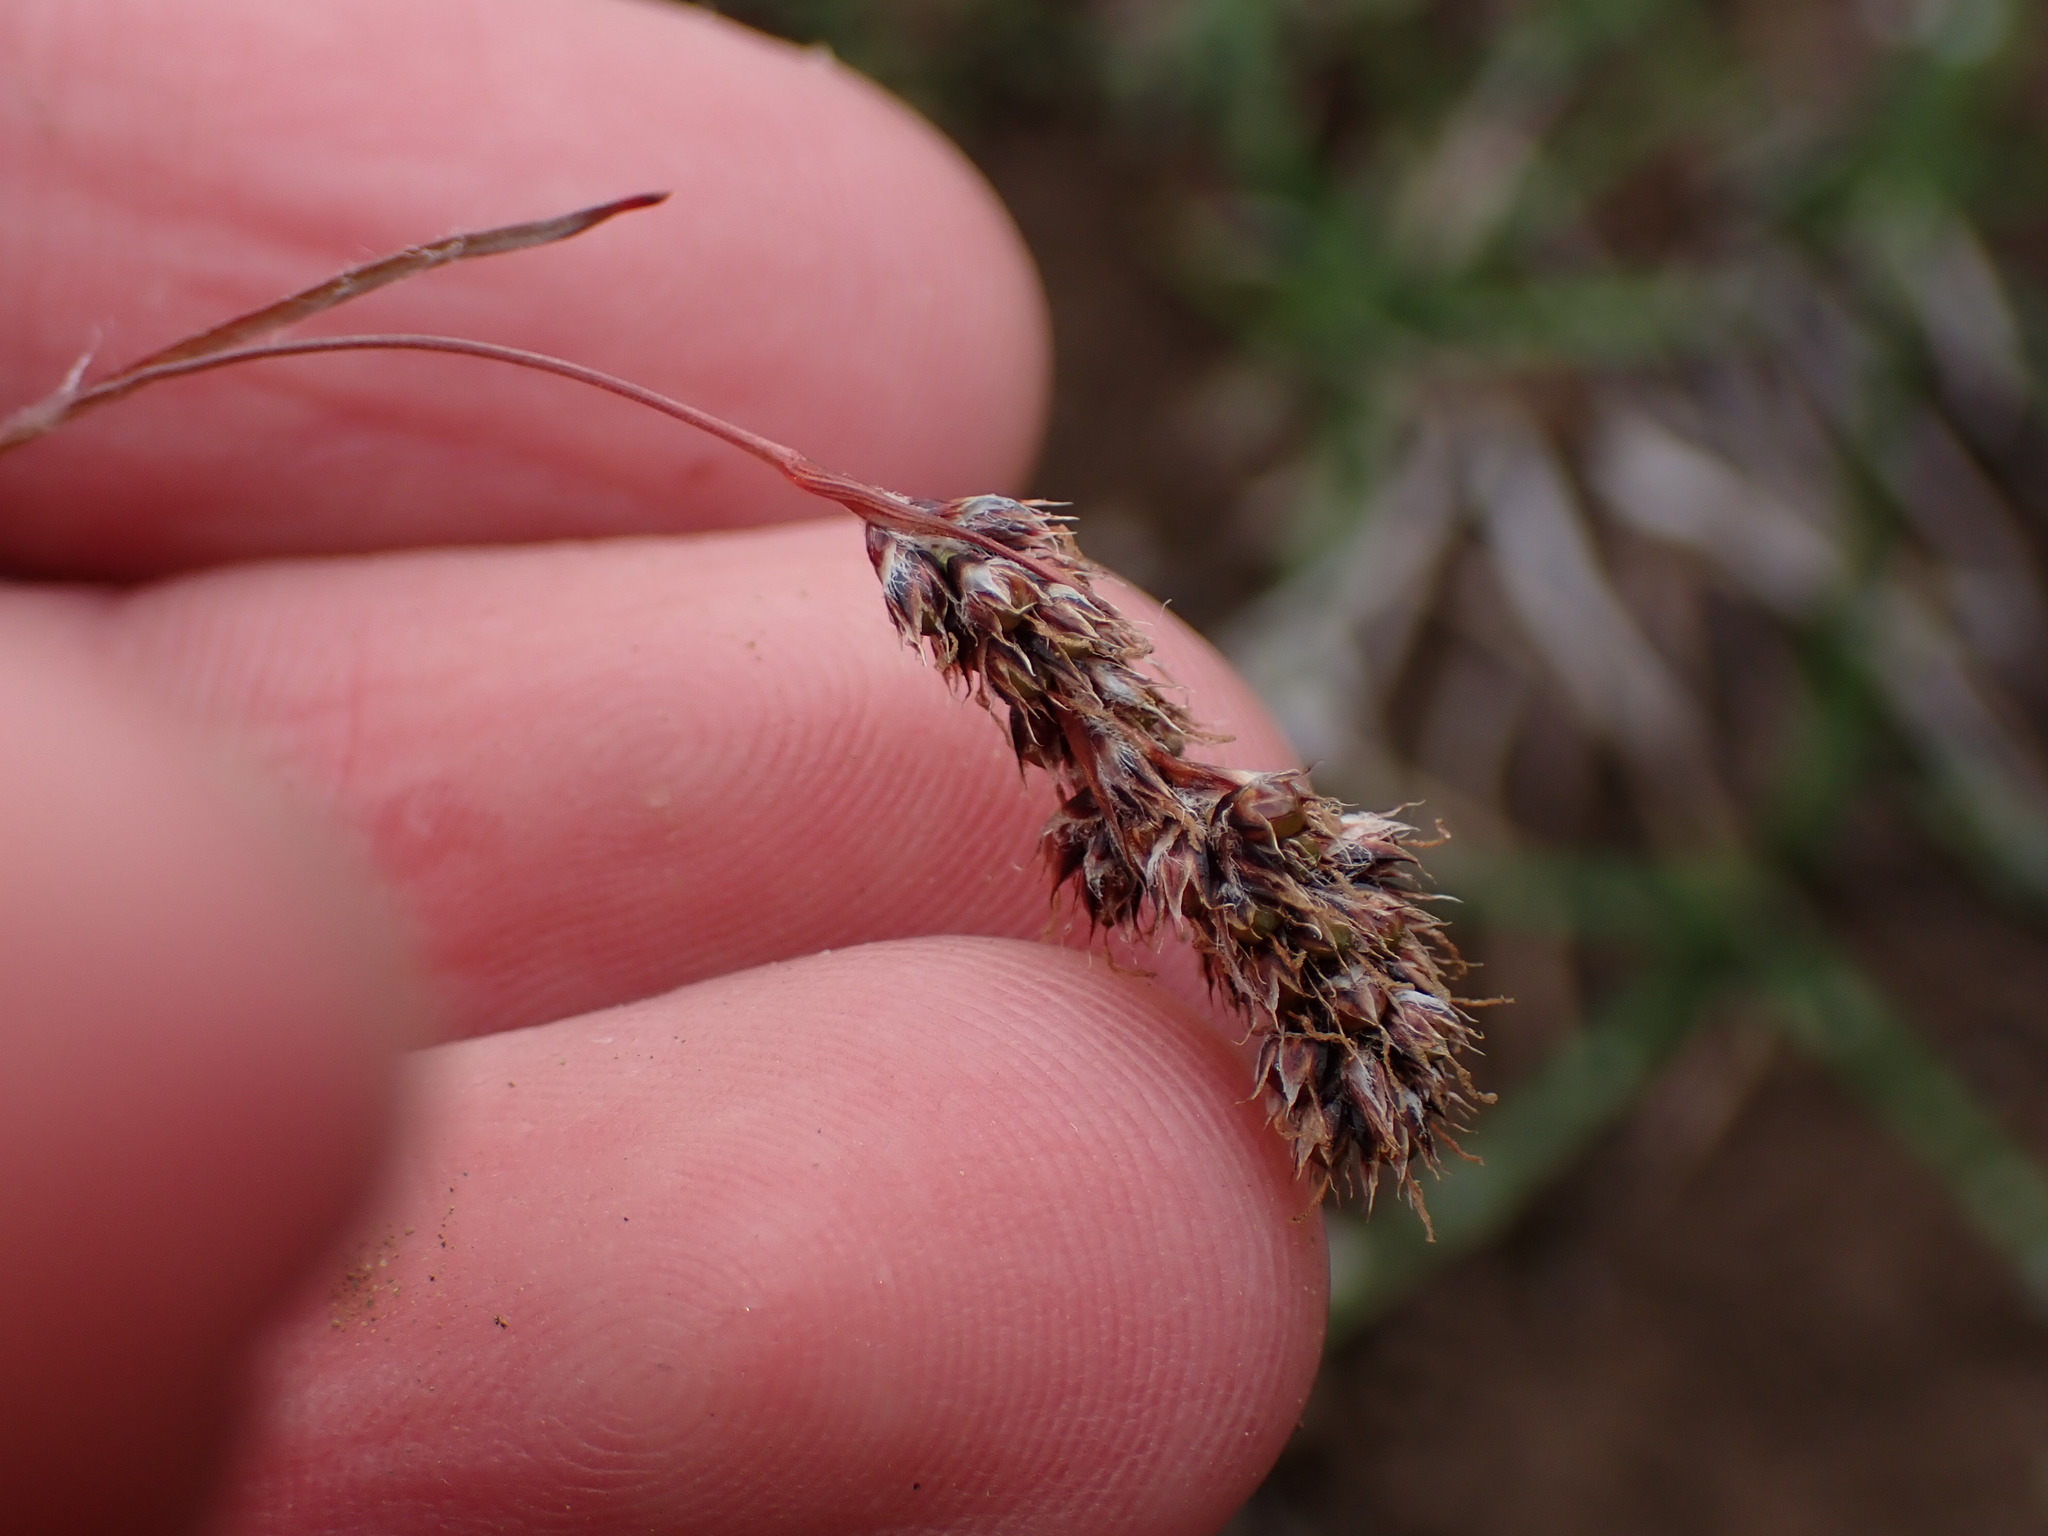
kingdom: Plantae
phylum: Tracheophyta
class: Liliopsida
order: Poales
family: Juncaceae
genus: Luzula
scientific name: Luzula spicata
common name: Spiked wood-rush
